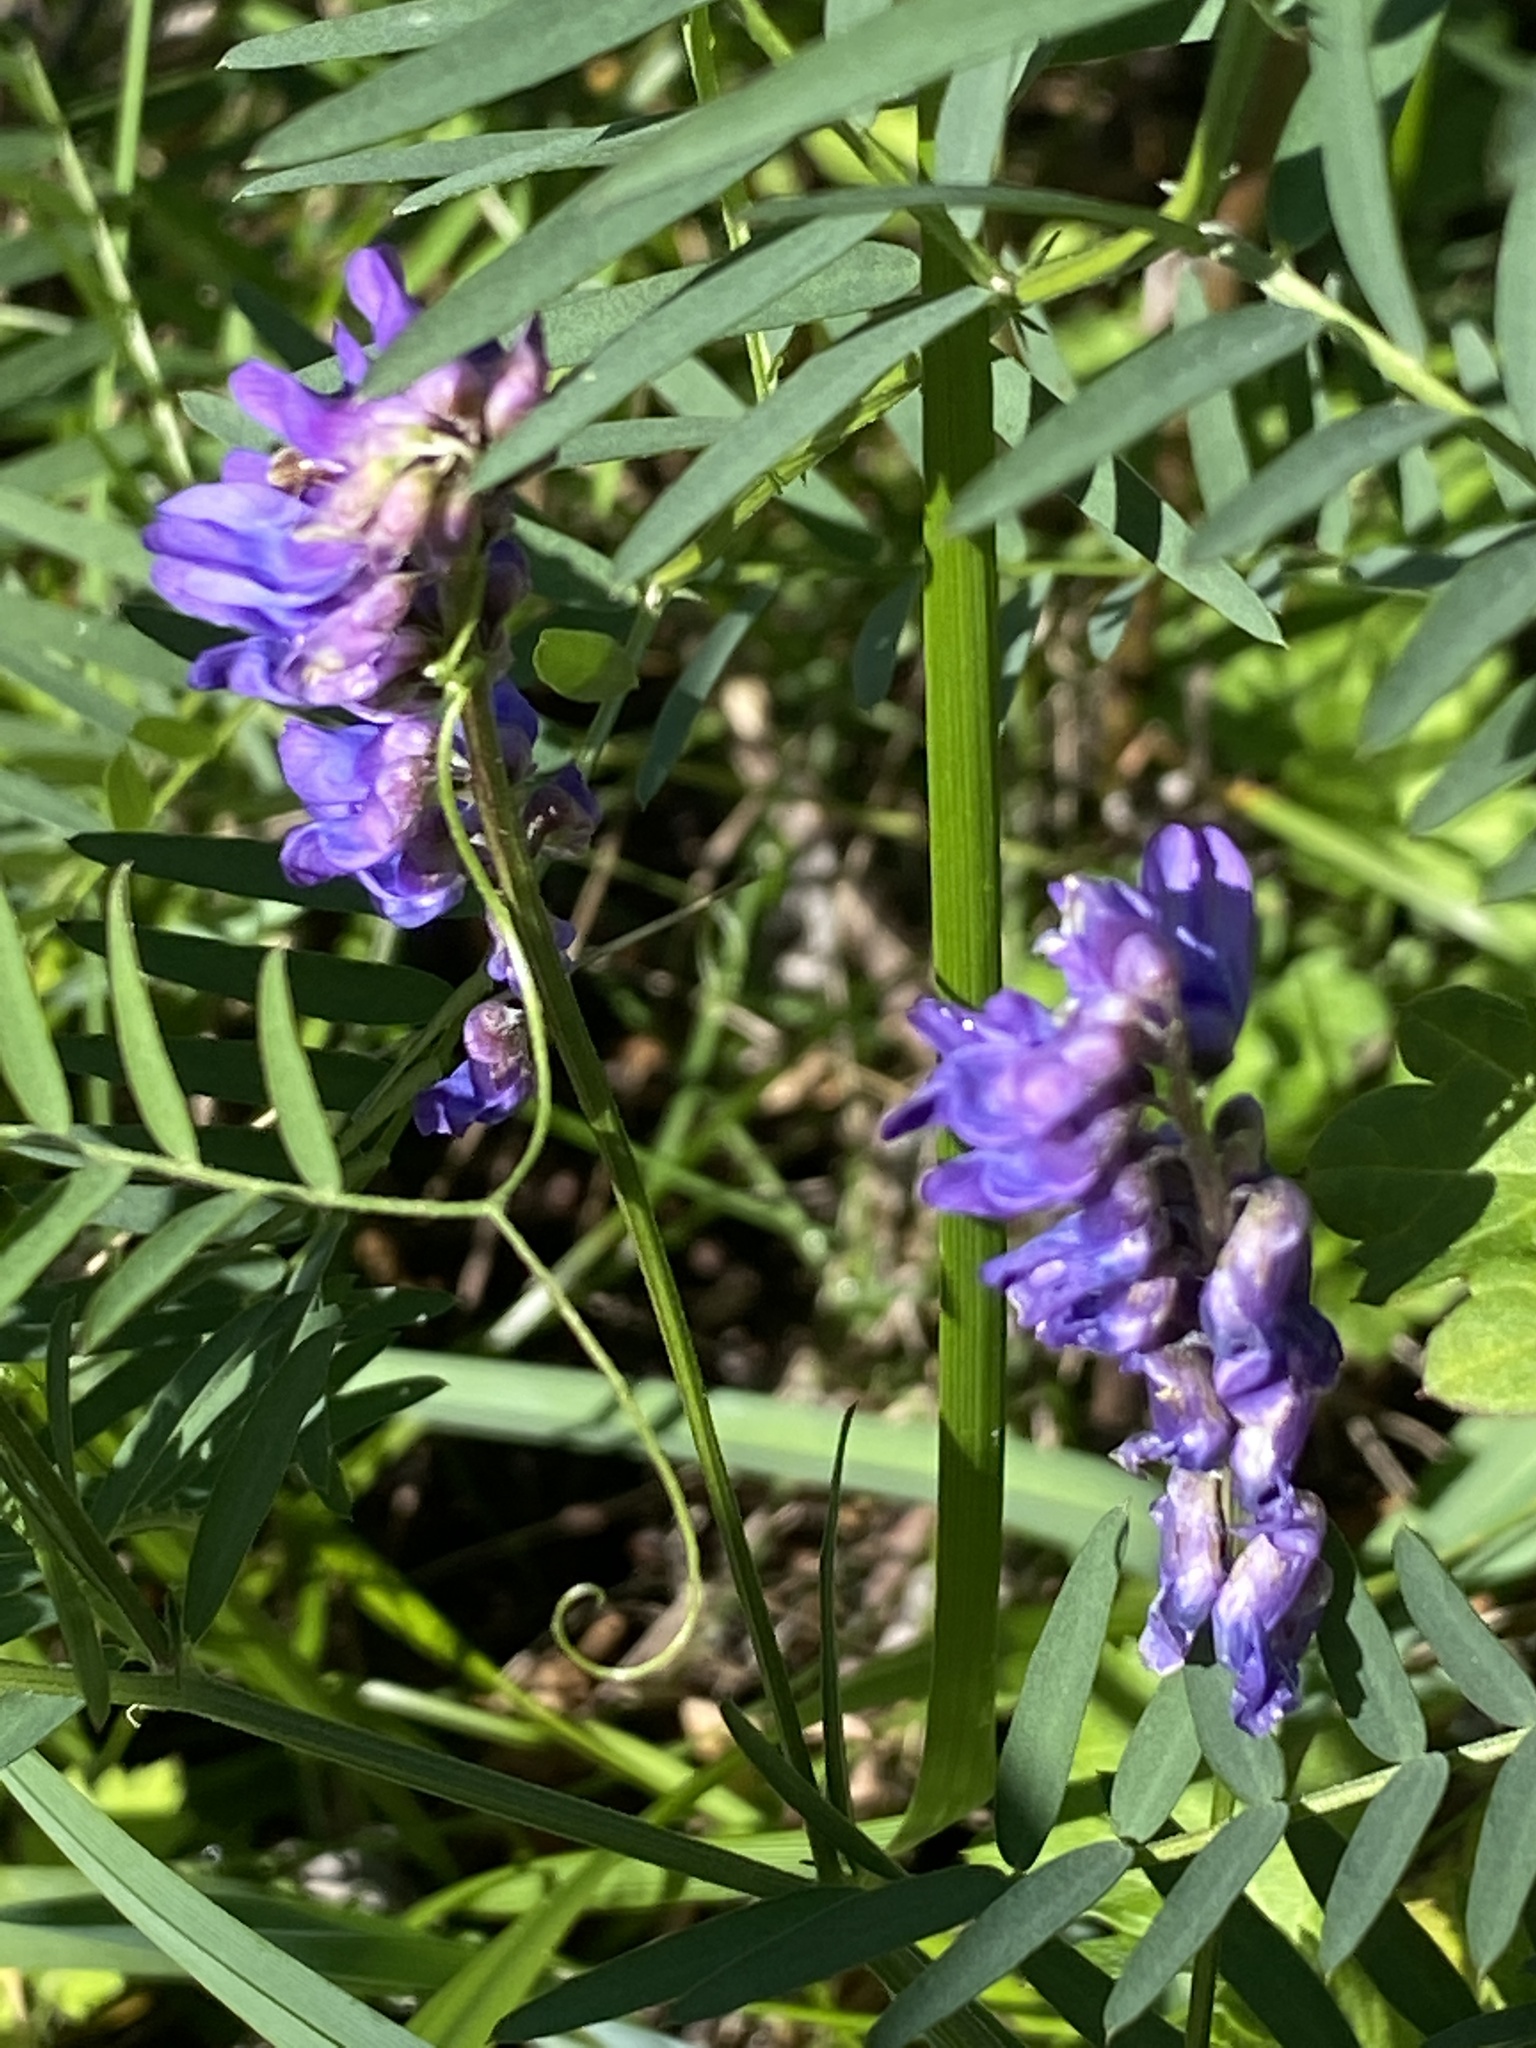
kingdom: Plantae
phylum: Tracheophyta
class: Magnoliopsida
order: Fabales
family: Fabaceae
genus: Vicia
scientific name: Vicia cracca
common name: Bird vetch
